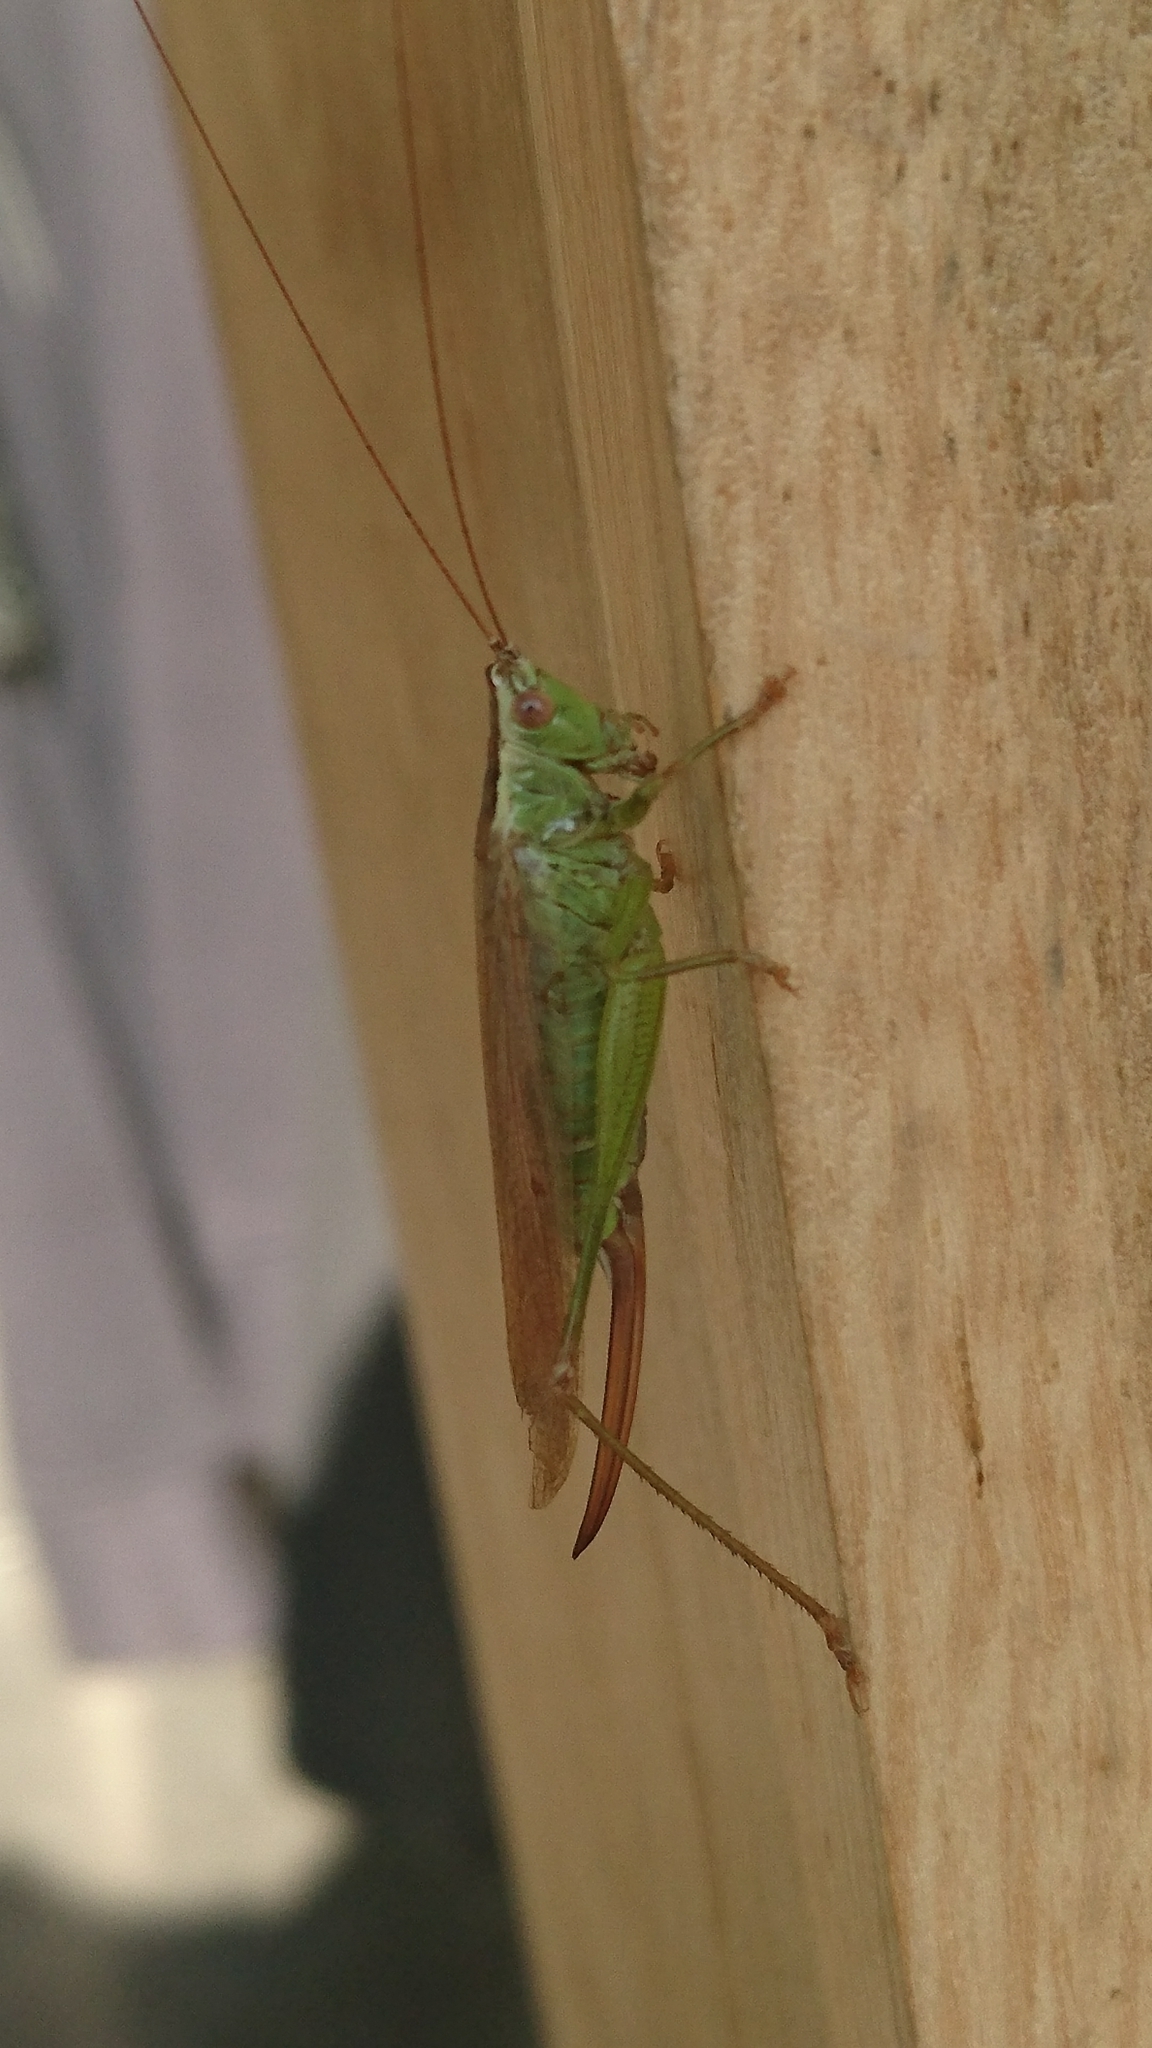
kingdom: Animalia
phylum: Arthropoda
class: Insecta
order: Orthoptera
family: Tettigoniidae
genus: Conocephalus
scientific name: Conocephalus fuscus
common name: Long-winged conehead
